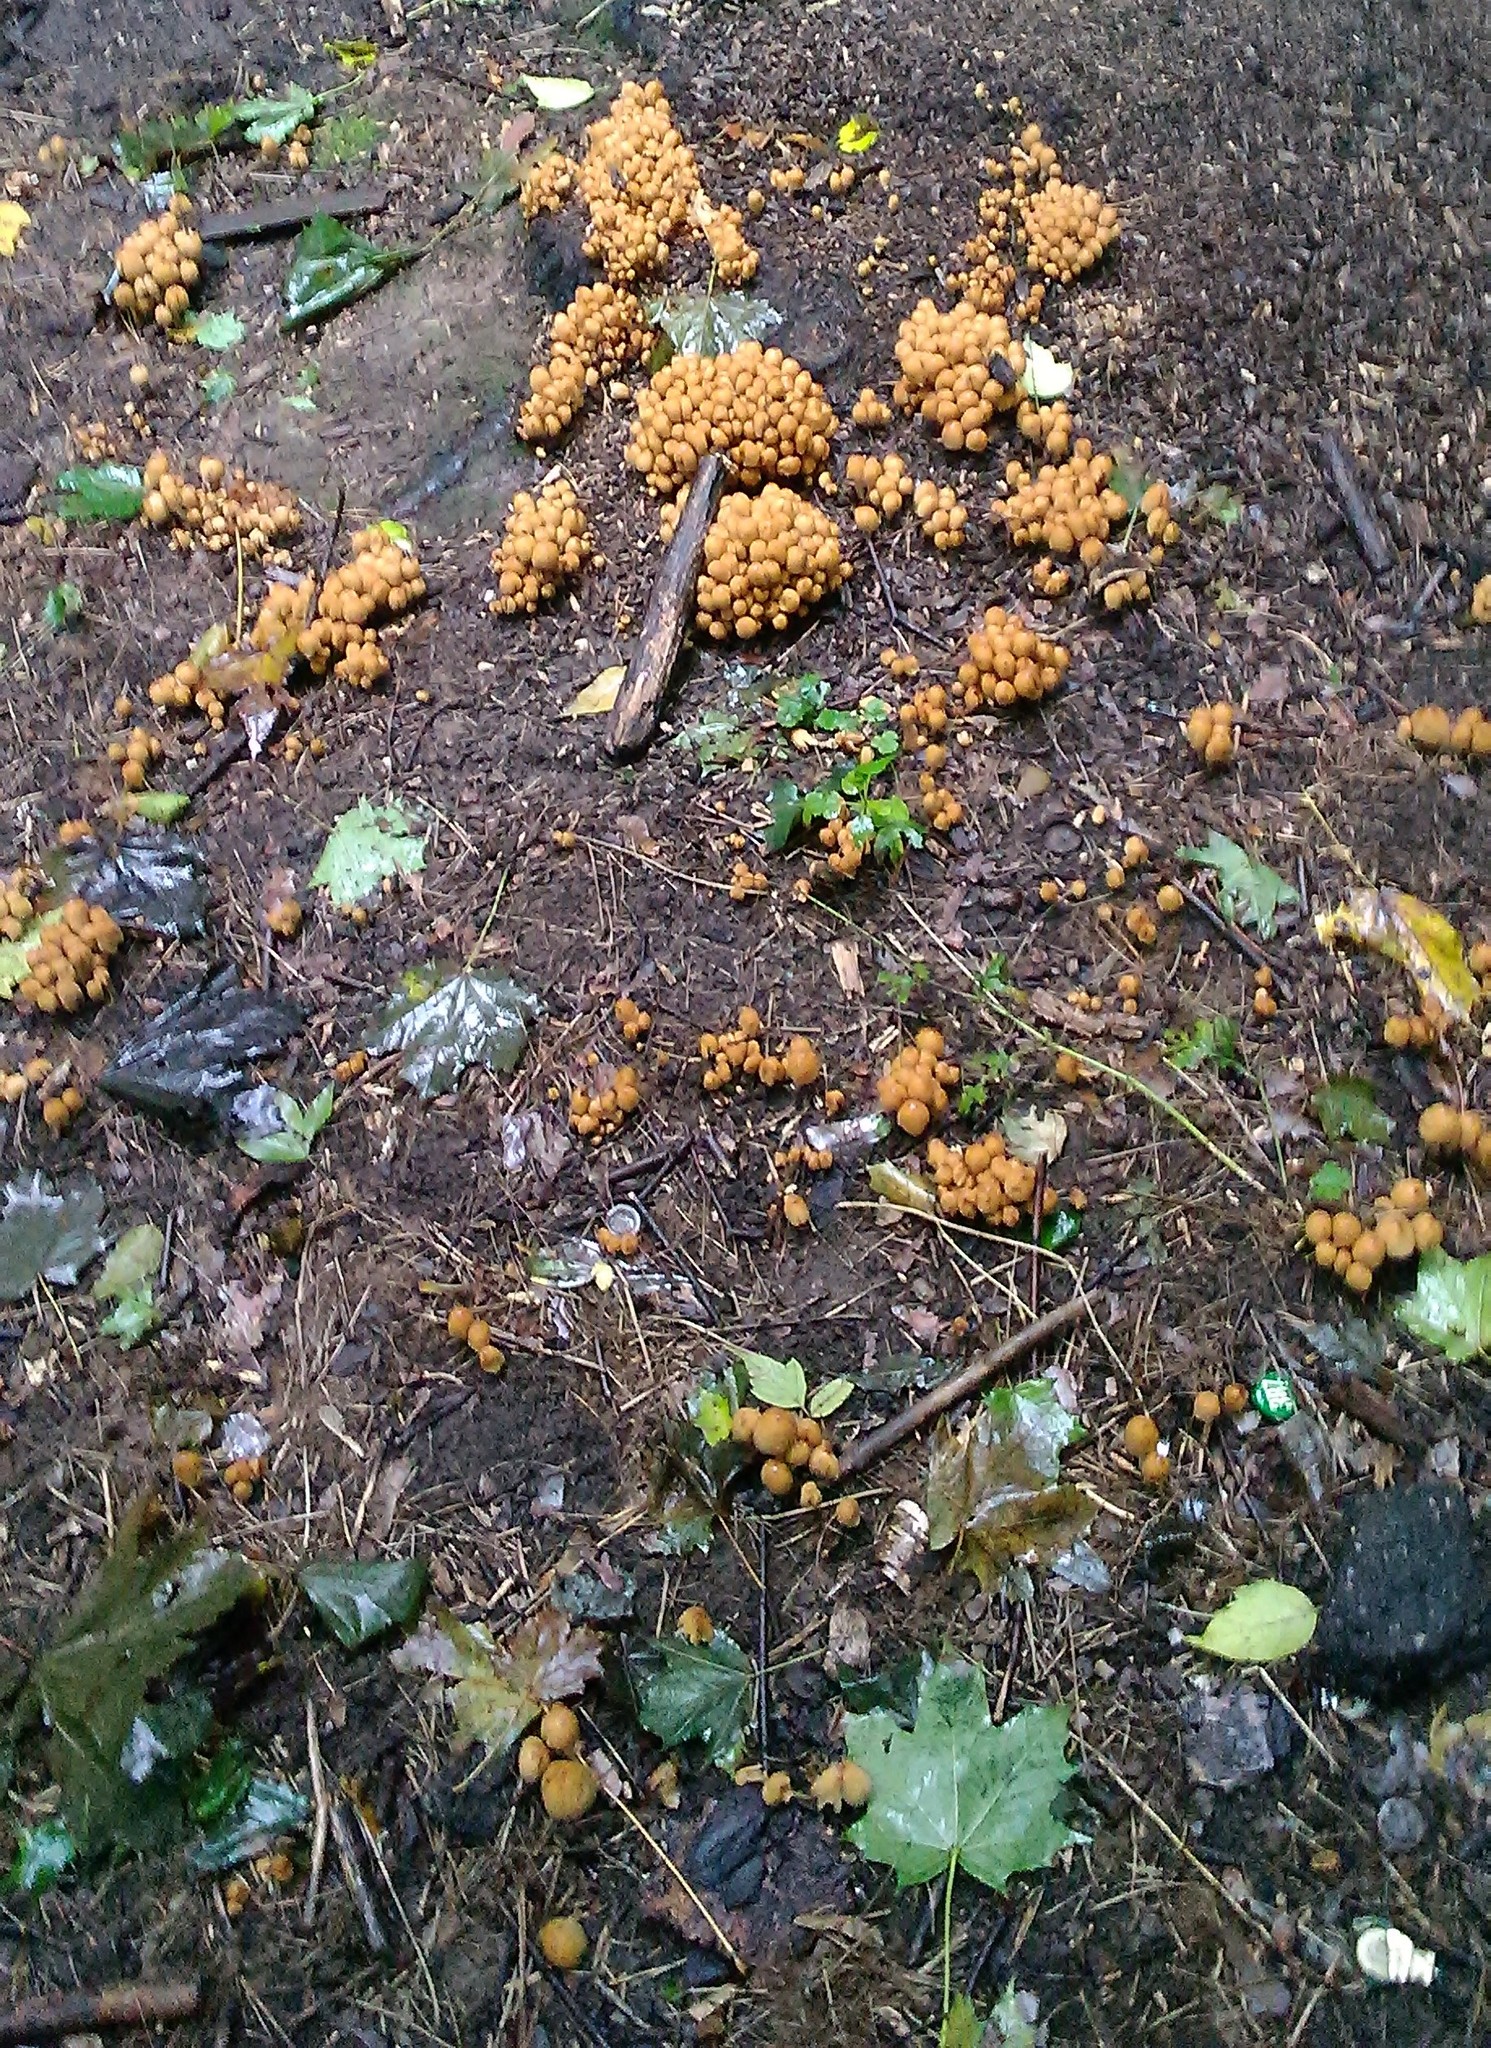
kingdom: Fungi
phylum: Basidiomycota
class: Agaricomycetes
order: Agaricales
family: Psathyrellaceae
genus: Coprinellus
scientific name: Coprinellus micaceus
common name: Glistening ink-cap
